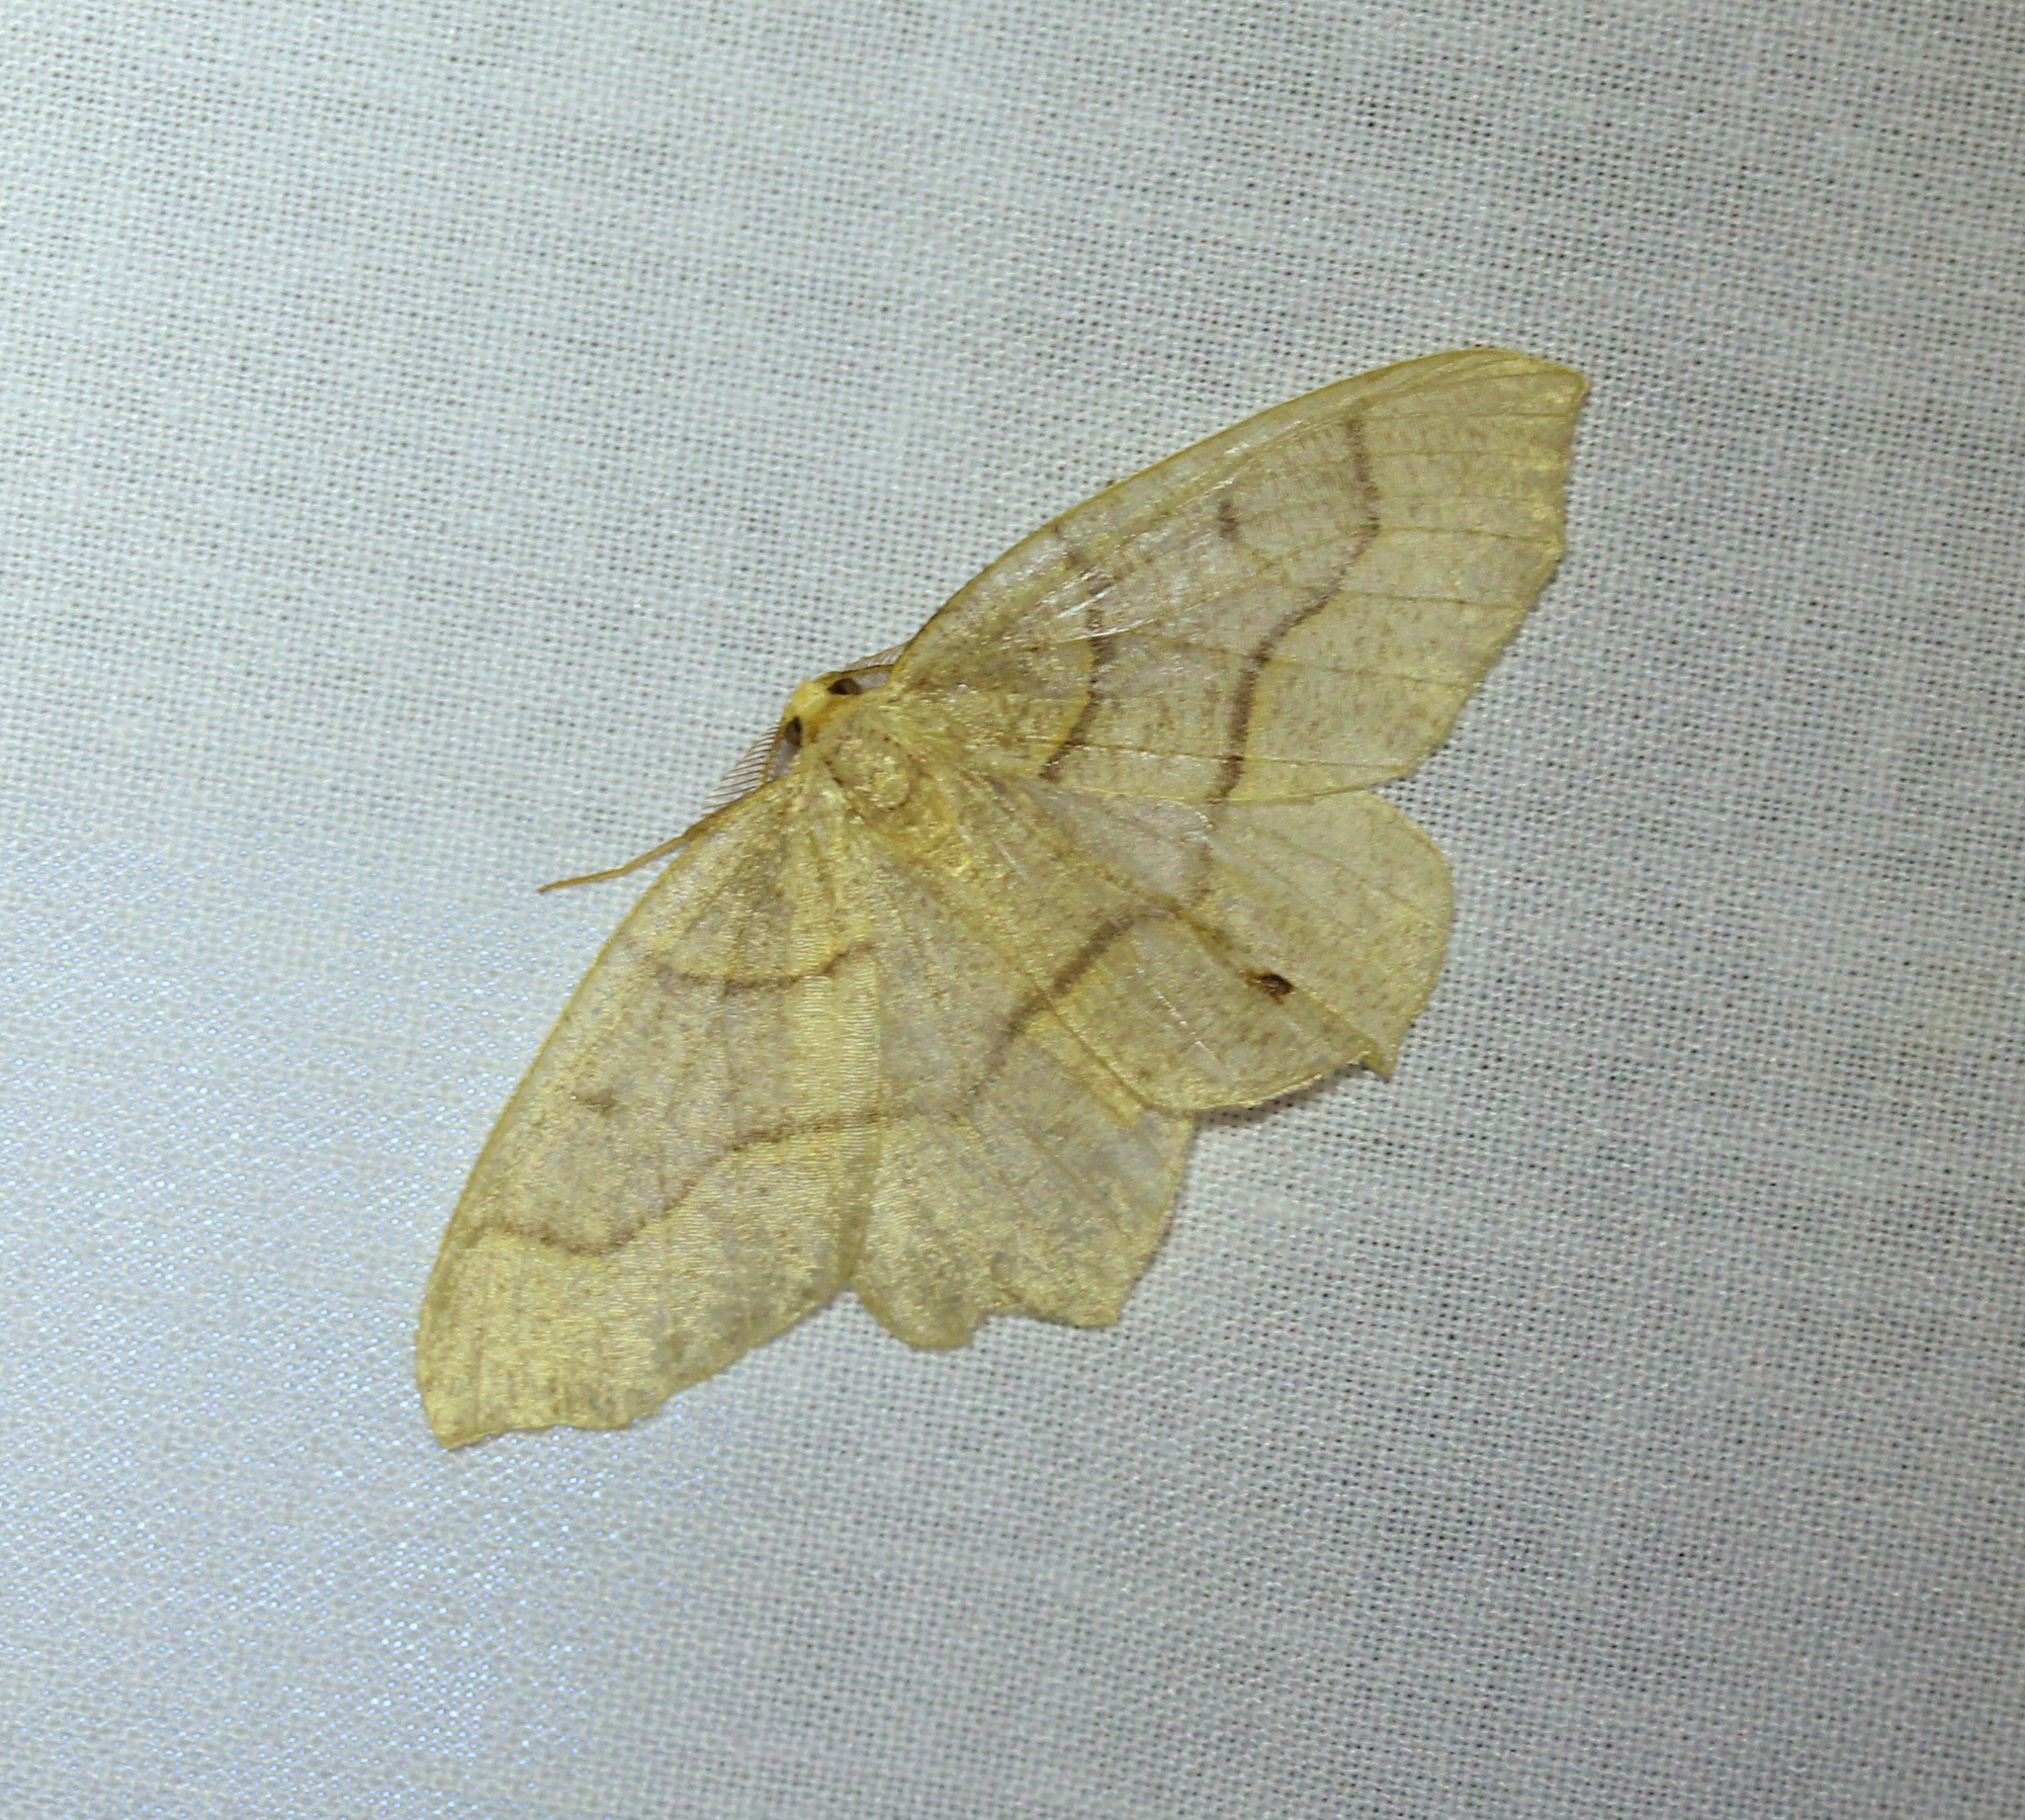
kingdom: Animalia
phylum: Arthropoda
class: Insecta
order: Lepidoptera
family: Geometridae
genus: Lambdina
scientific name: Lambdina fiscellaria
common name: Hemlock looper
